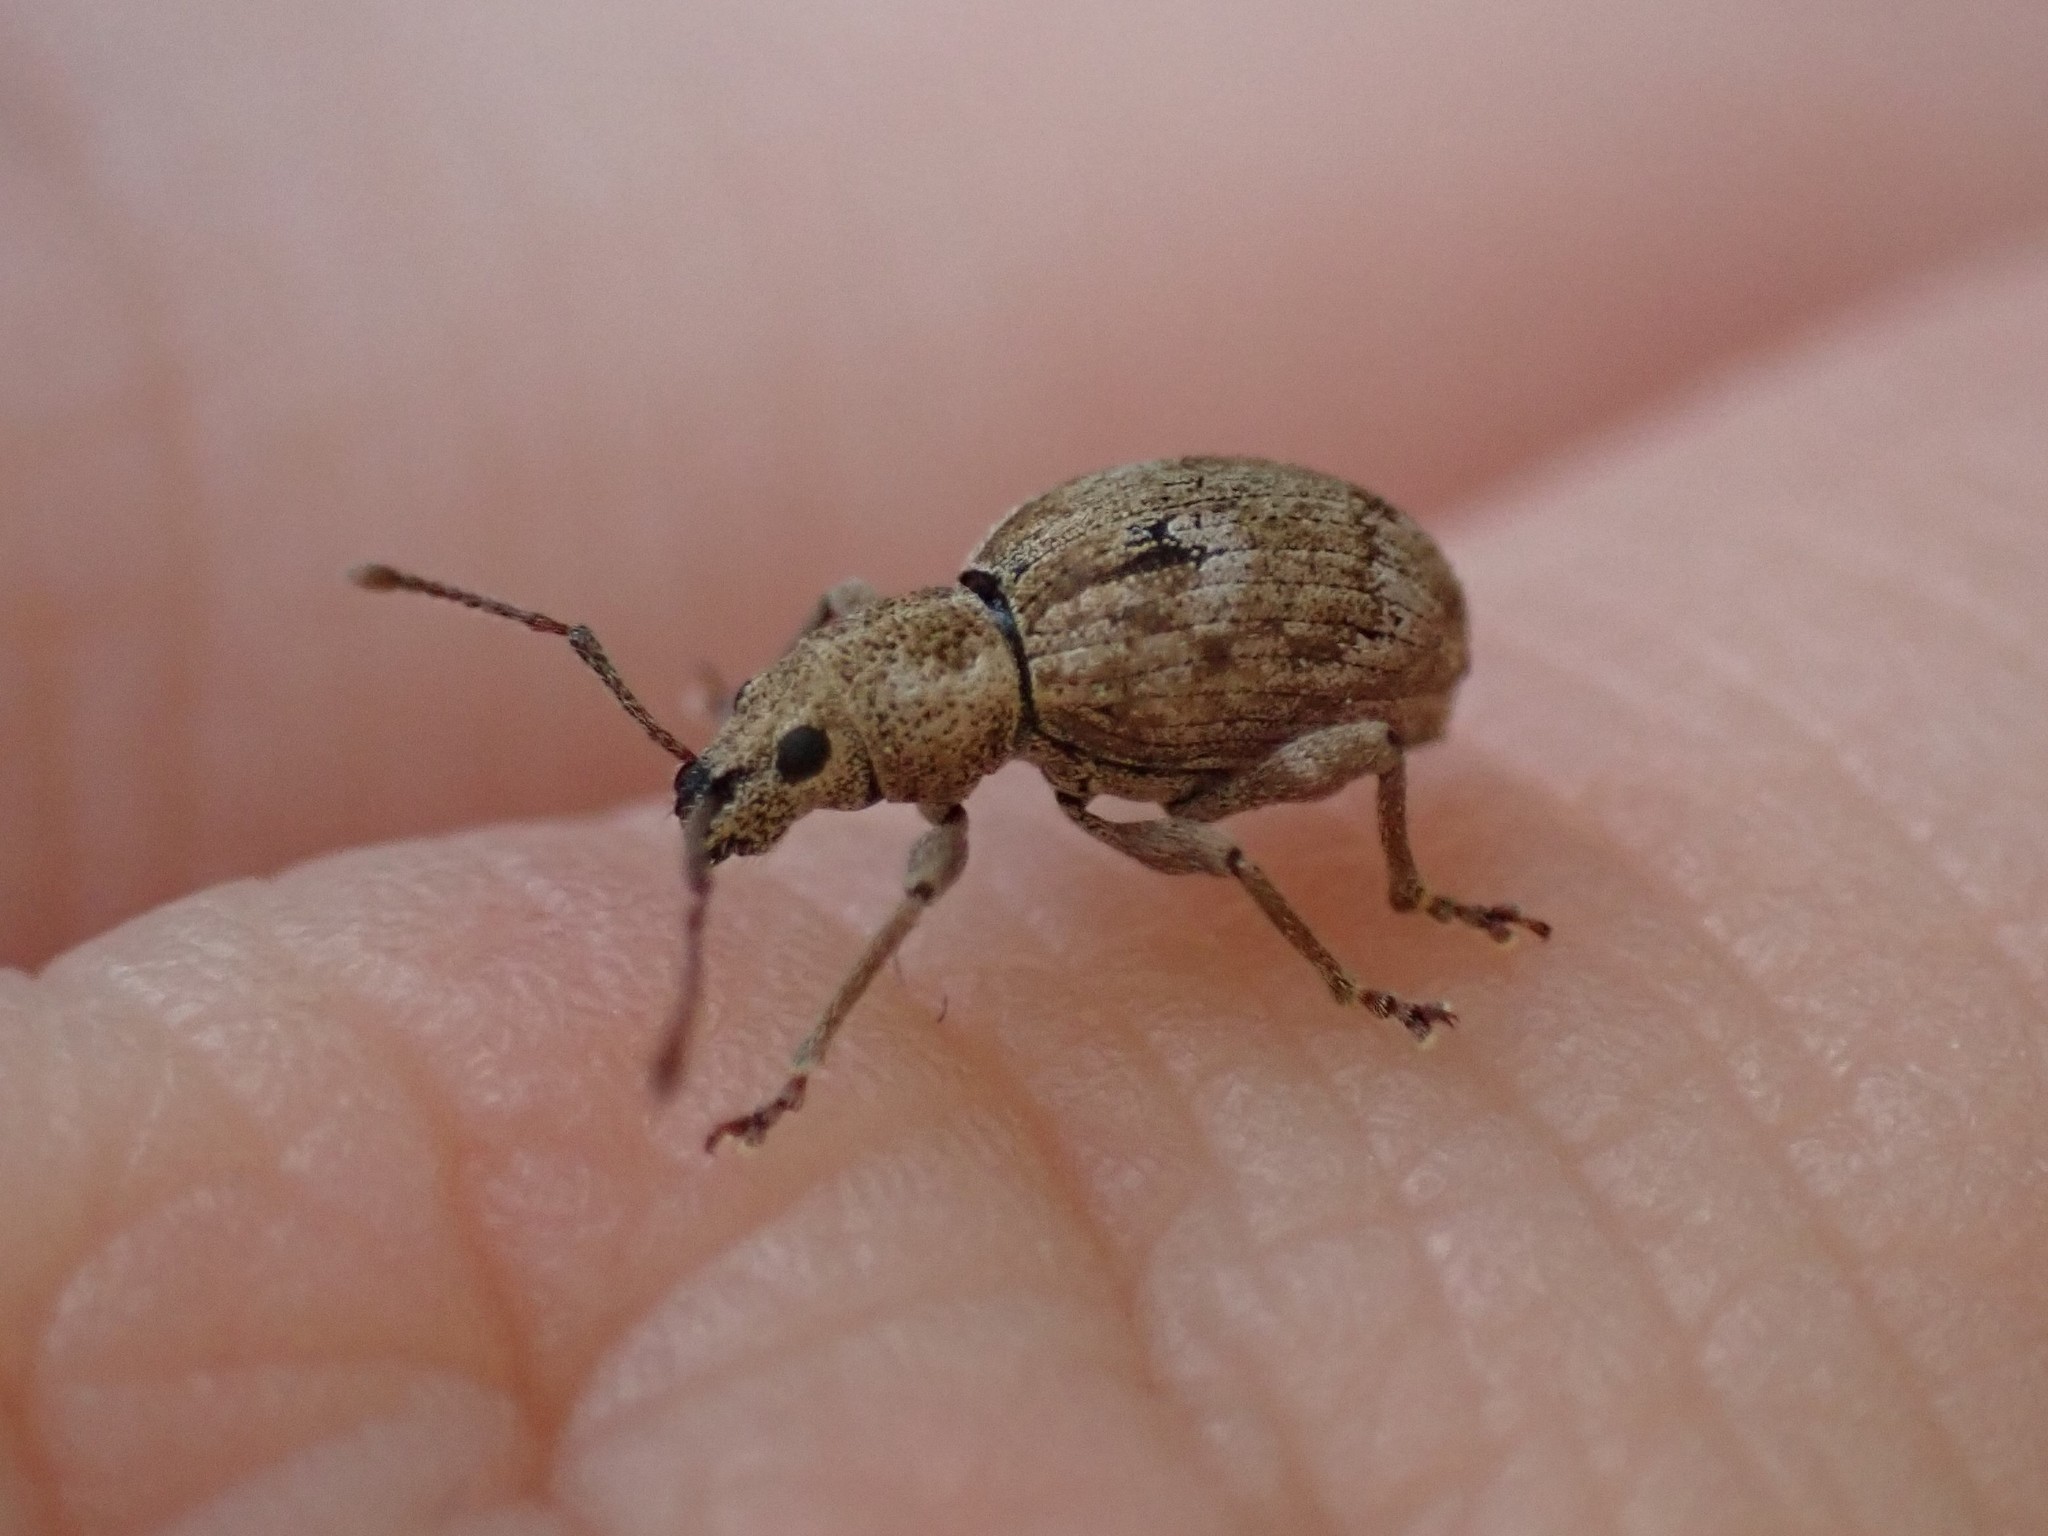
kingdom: Animalia
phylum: Arthropoda
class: Insecta
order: Coleoptera
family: Curculionidae
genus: Sciopithes
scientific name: Sciopithes obscurus
